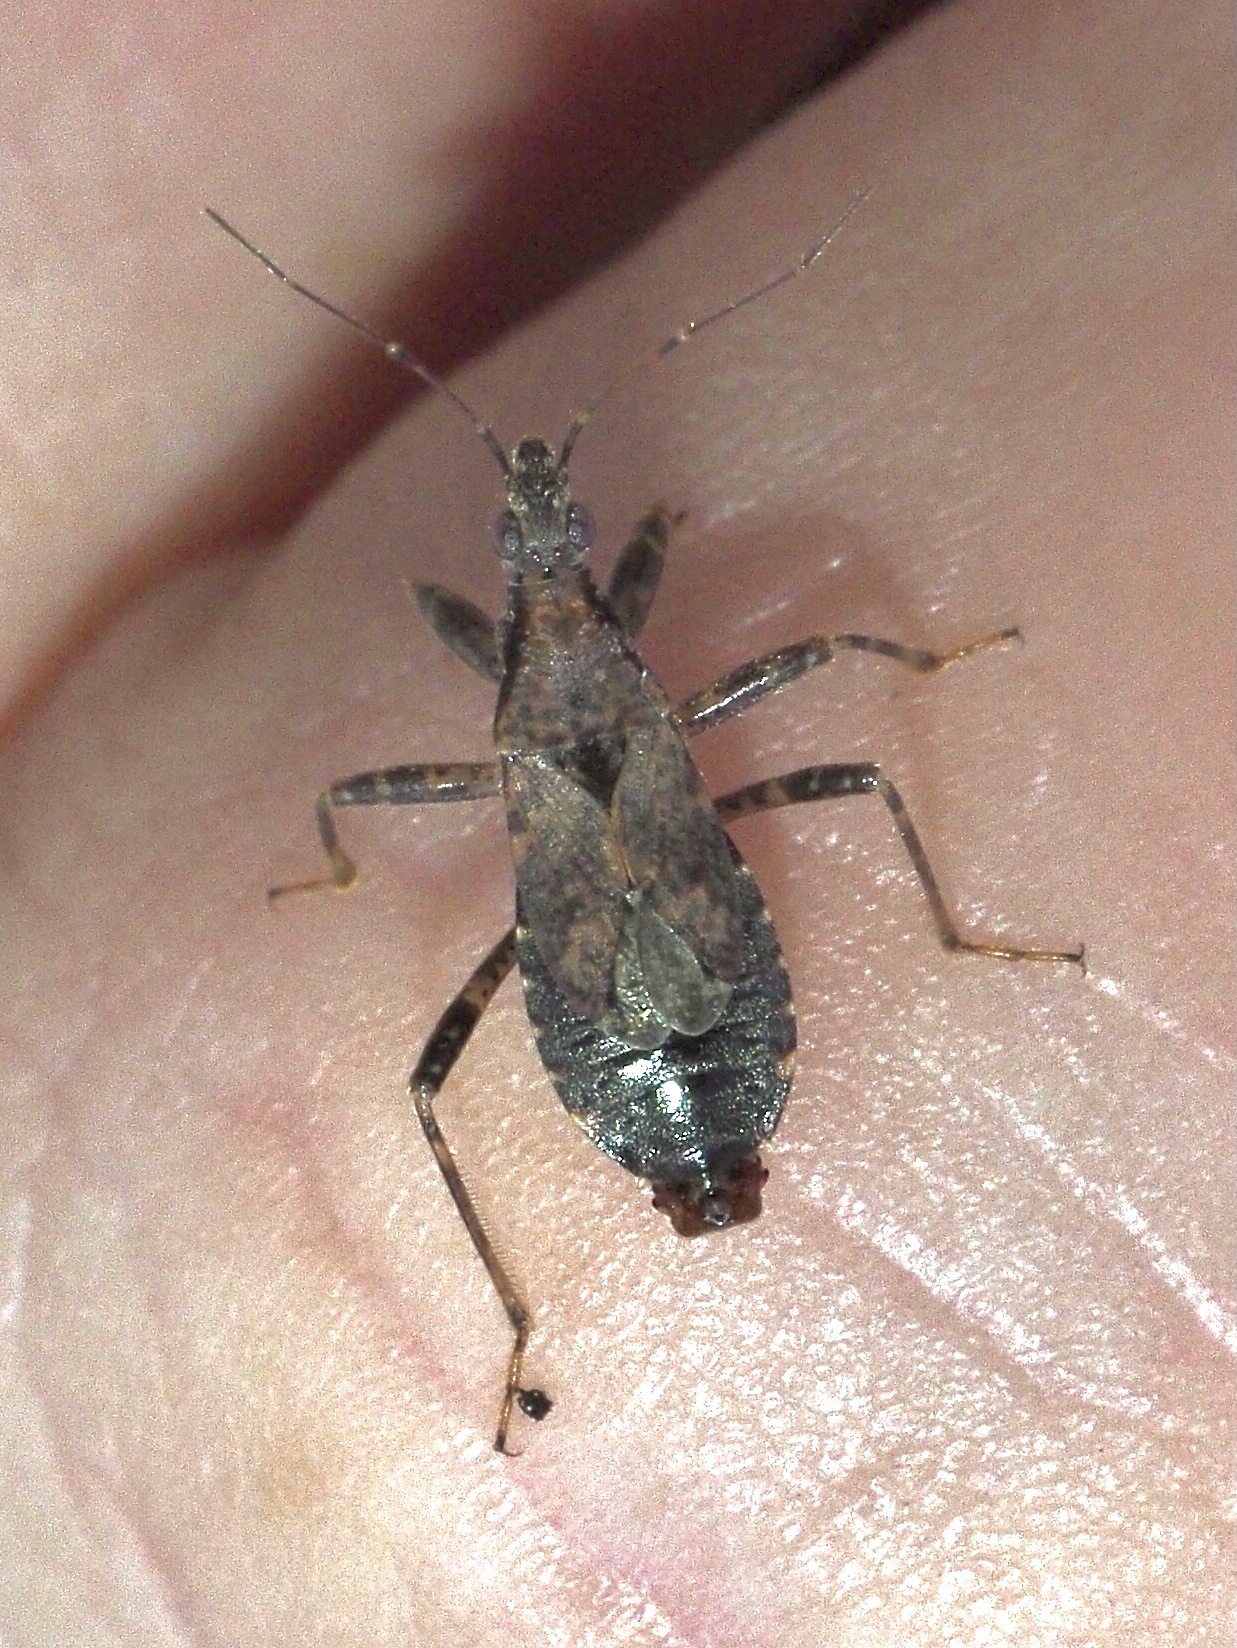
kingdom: Animalia
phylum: Arthropoda
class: Insecta
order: Hemiptera
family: Nabidae
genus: Himacerus
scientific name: Himacerus mirmicoides
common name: Ant damsel bug
